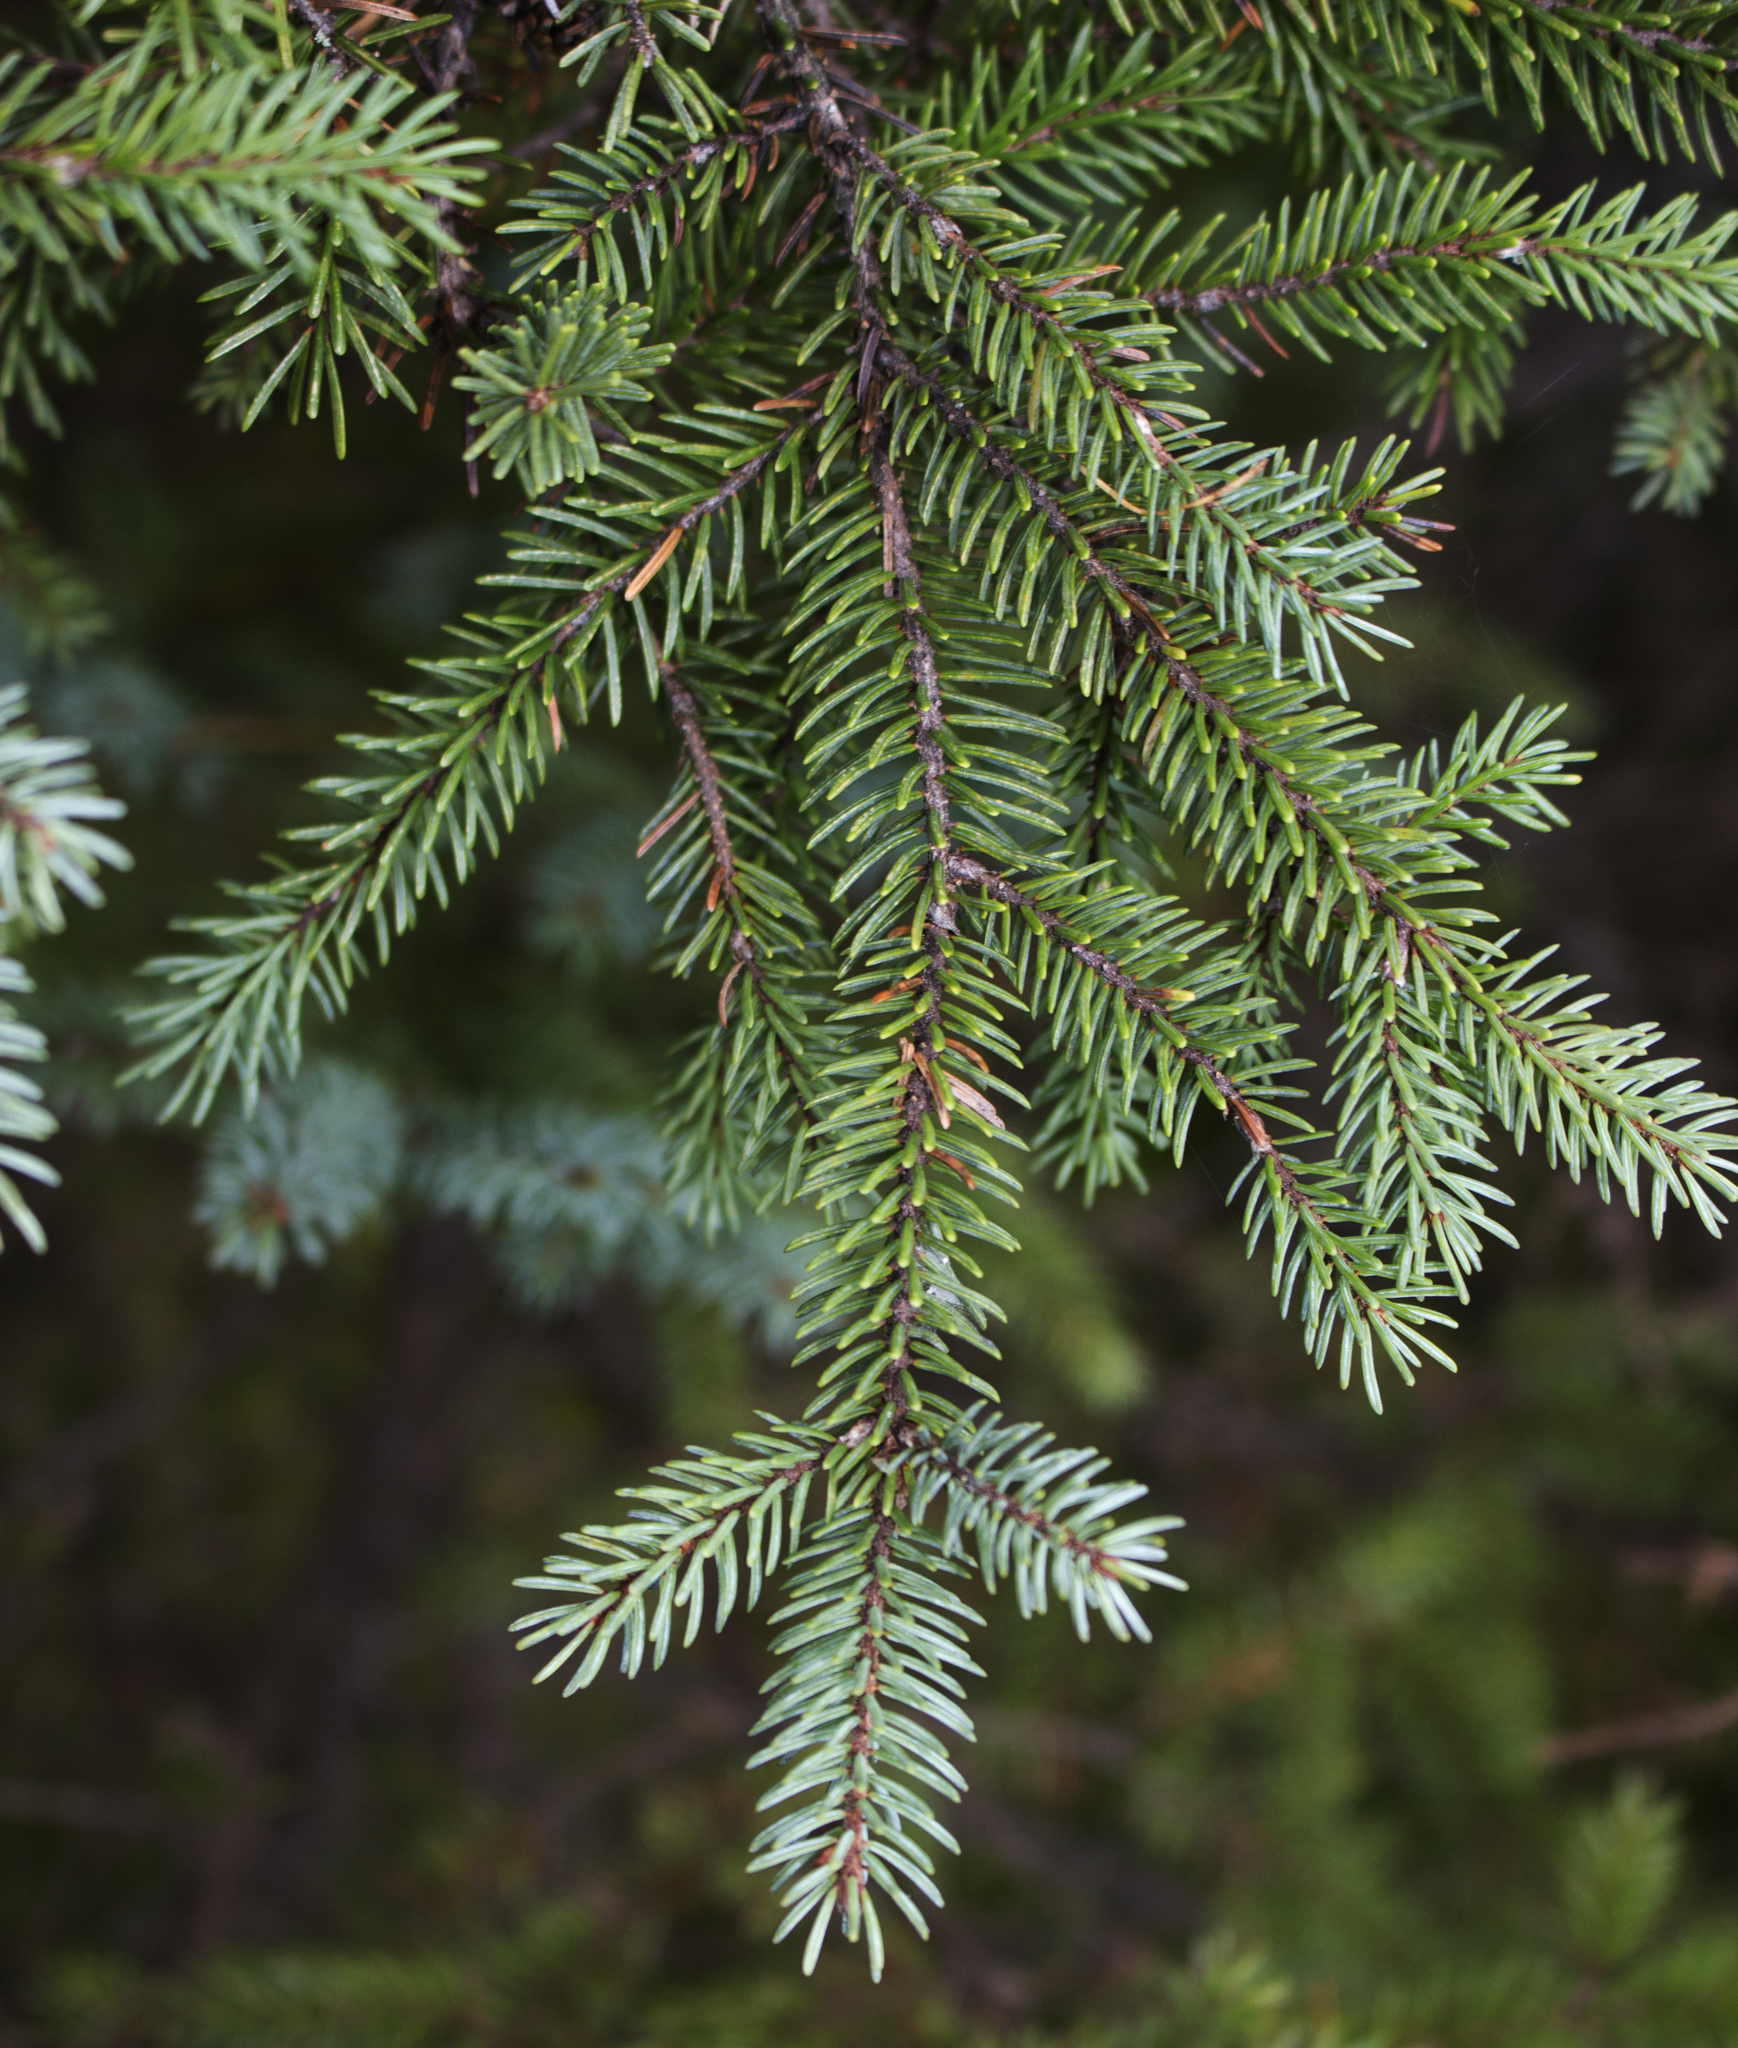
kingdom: Plantae
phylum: Tracheophyta
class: Pinopsida
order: Pinales
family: Pinaceae
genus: Picea
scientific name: Picea mariana
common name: Black spruce
